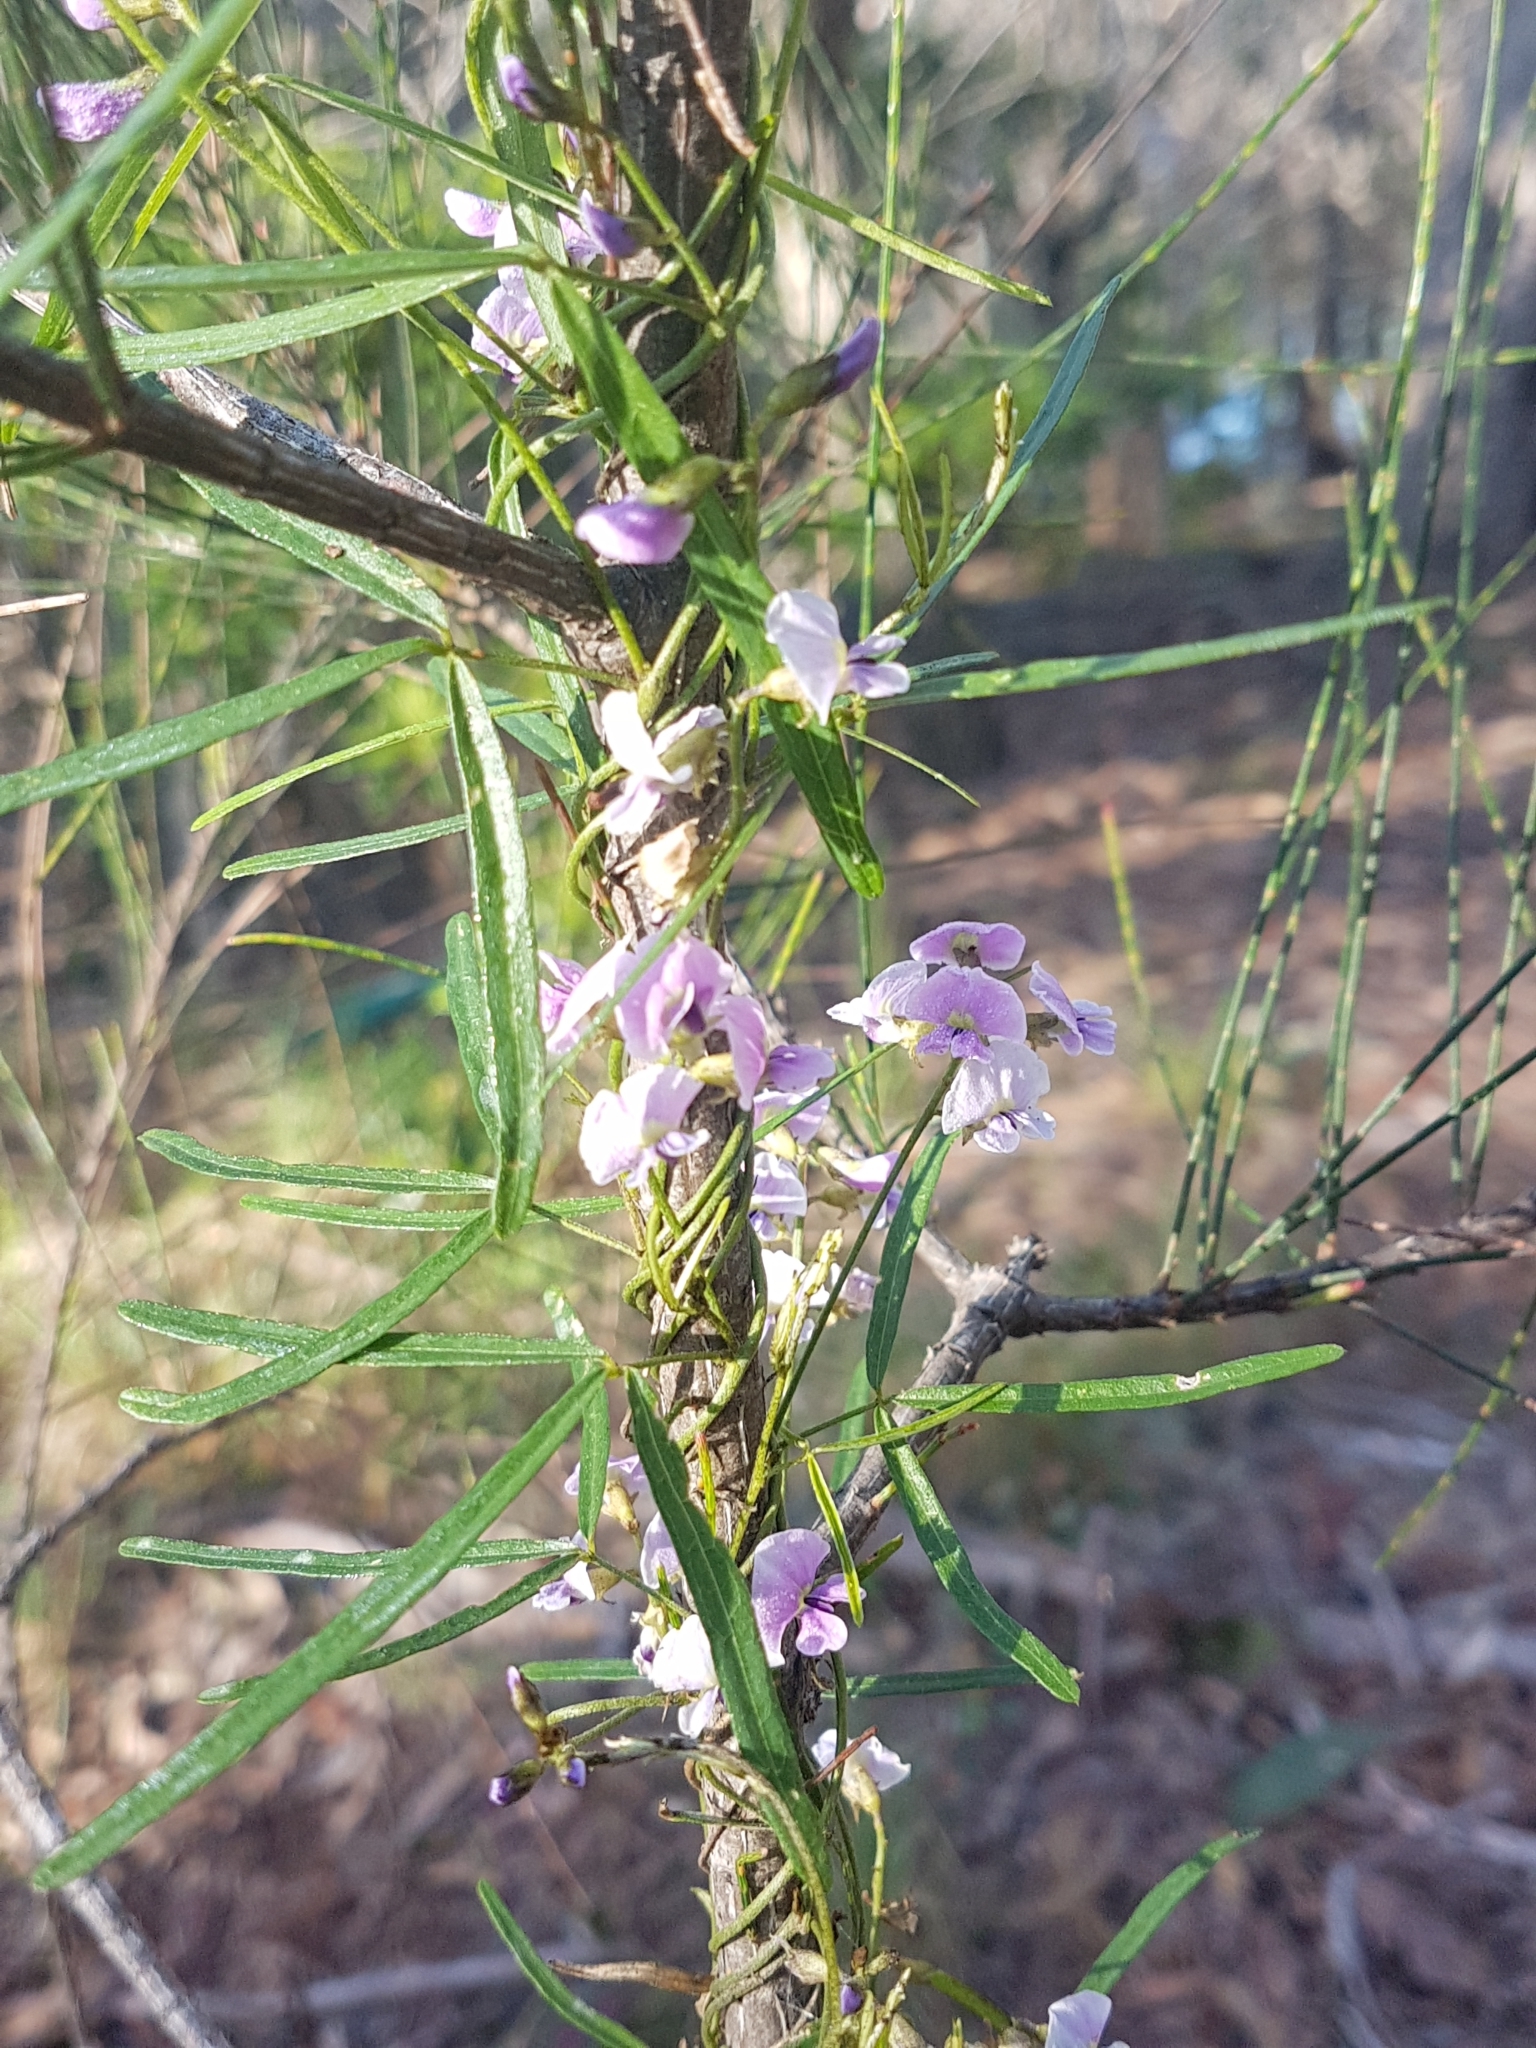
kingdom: Plantae
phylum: Tracheophyta
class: Magnoliopsida
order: Fabales
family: Fabaceae
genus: Glycine
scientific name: Glycine clandestina
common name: Twining glycine
